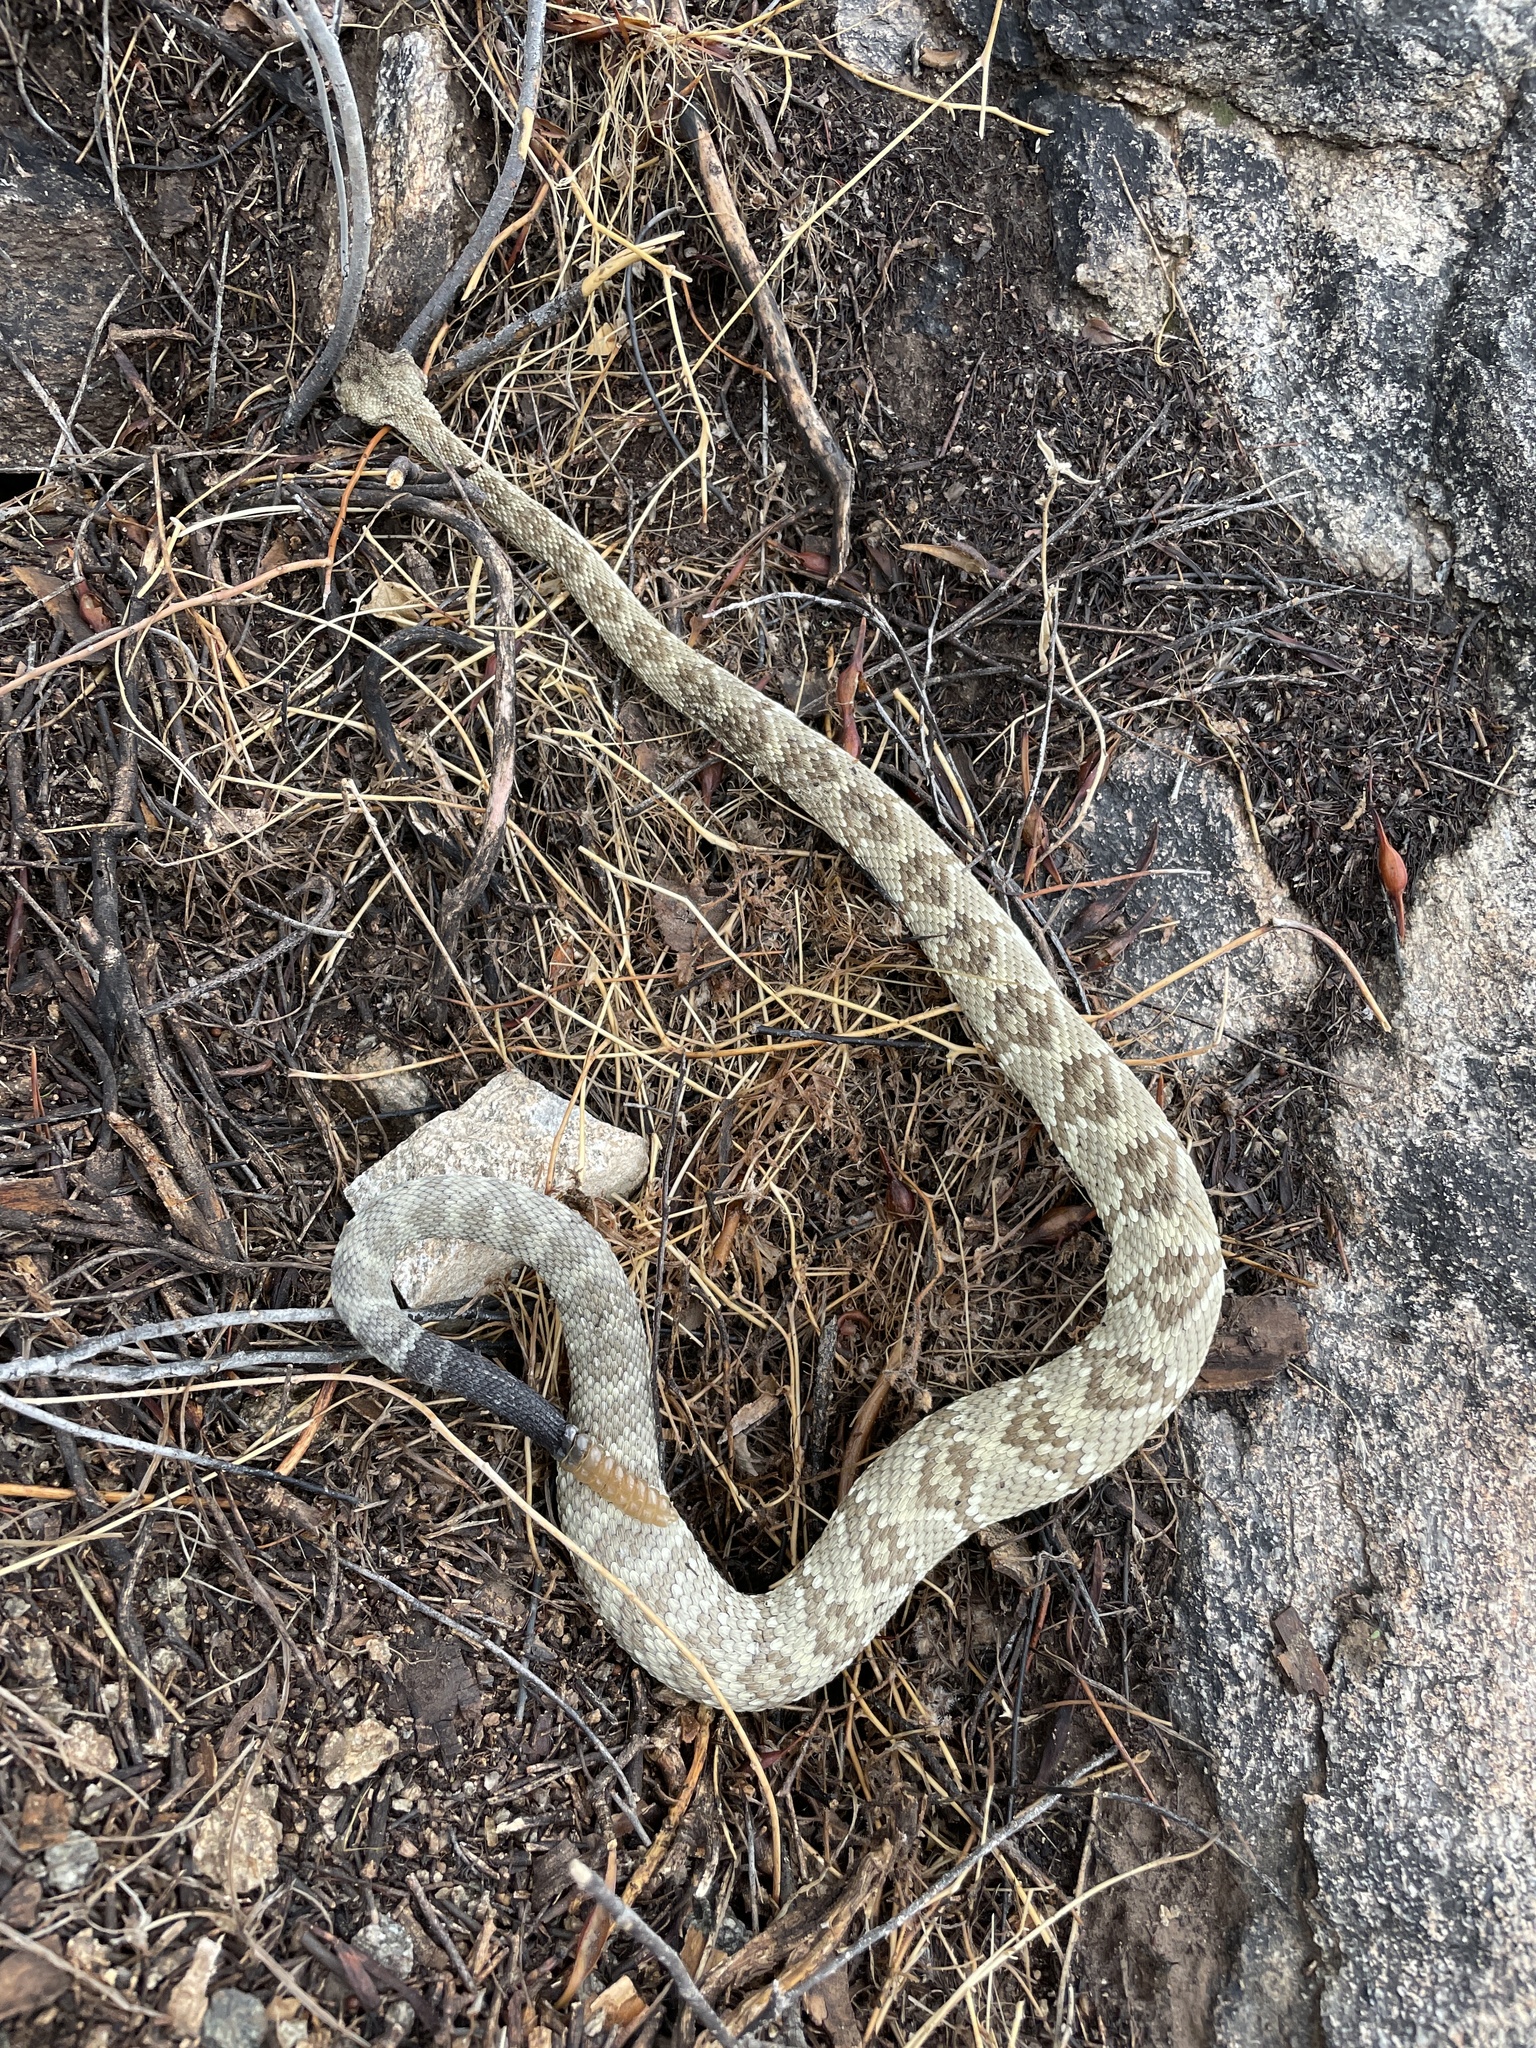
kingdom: Animalia
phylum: Chordata
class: Squamata
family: Viperidae
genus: Crotalus
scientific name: Crotalus molossus
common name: Black tailed rattlesnake
